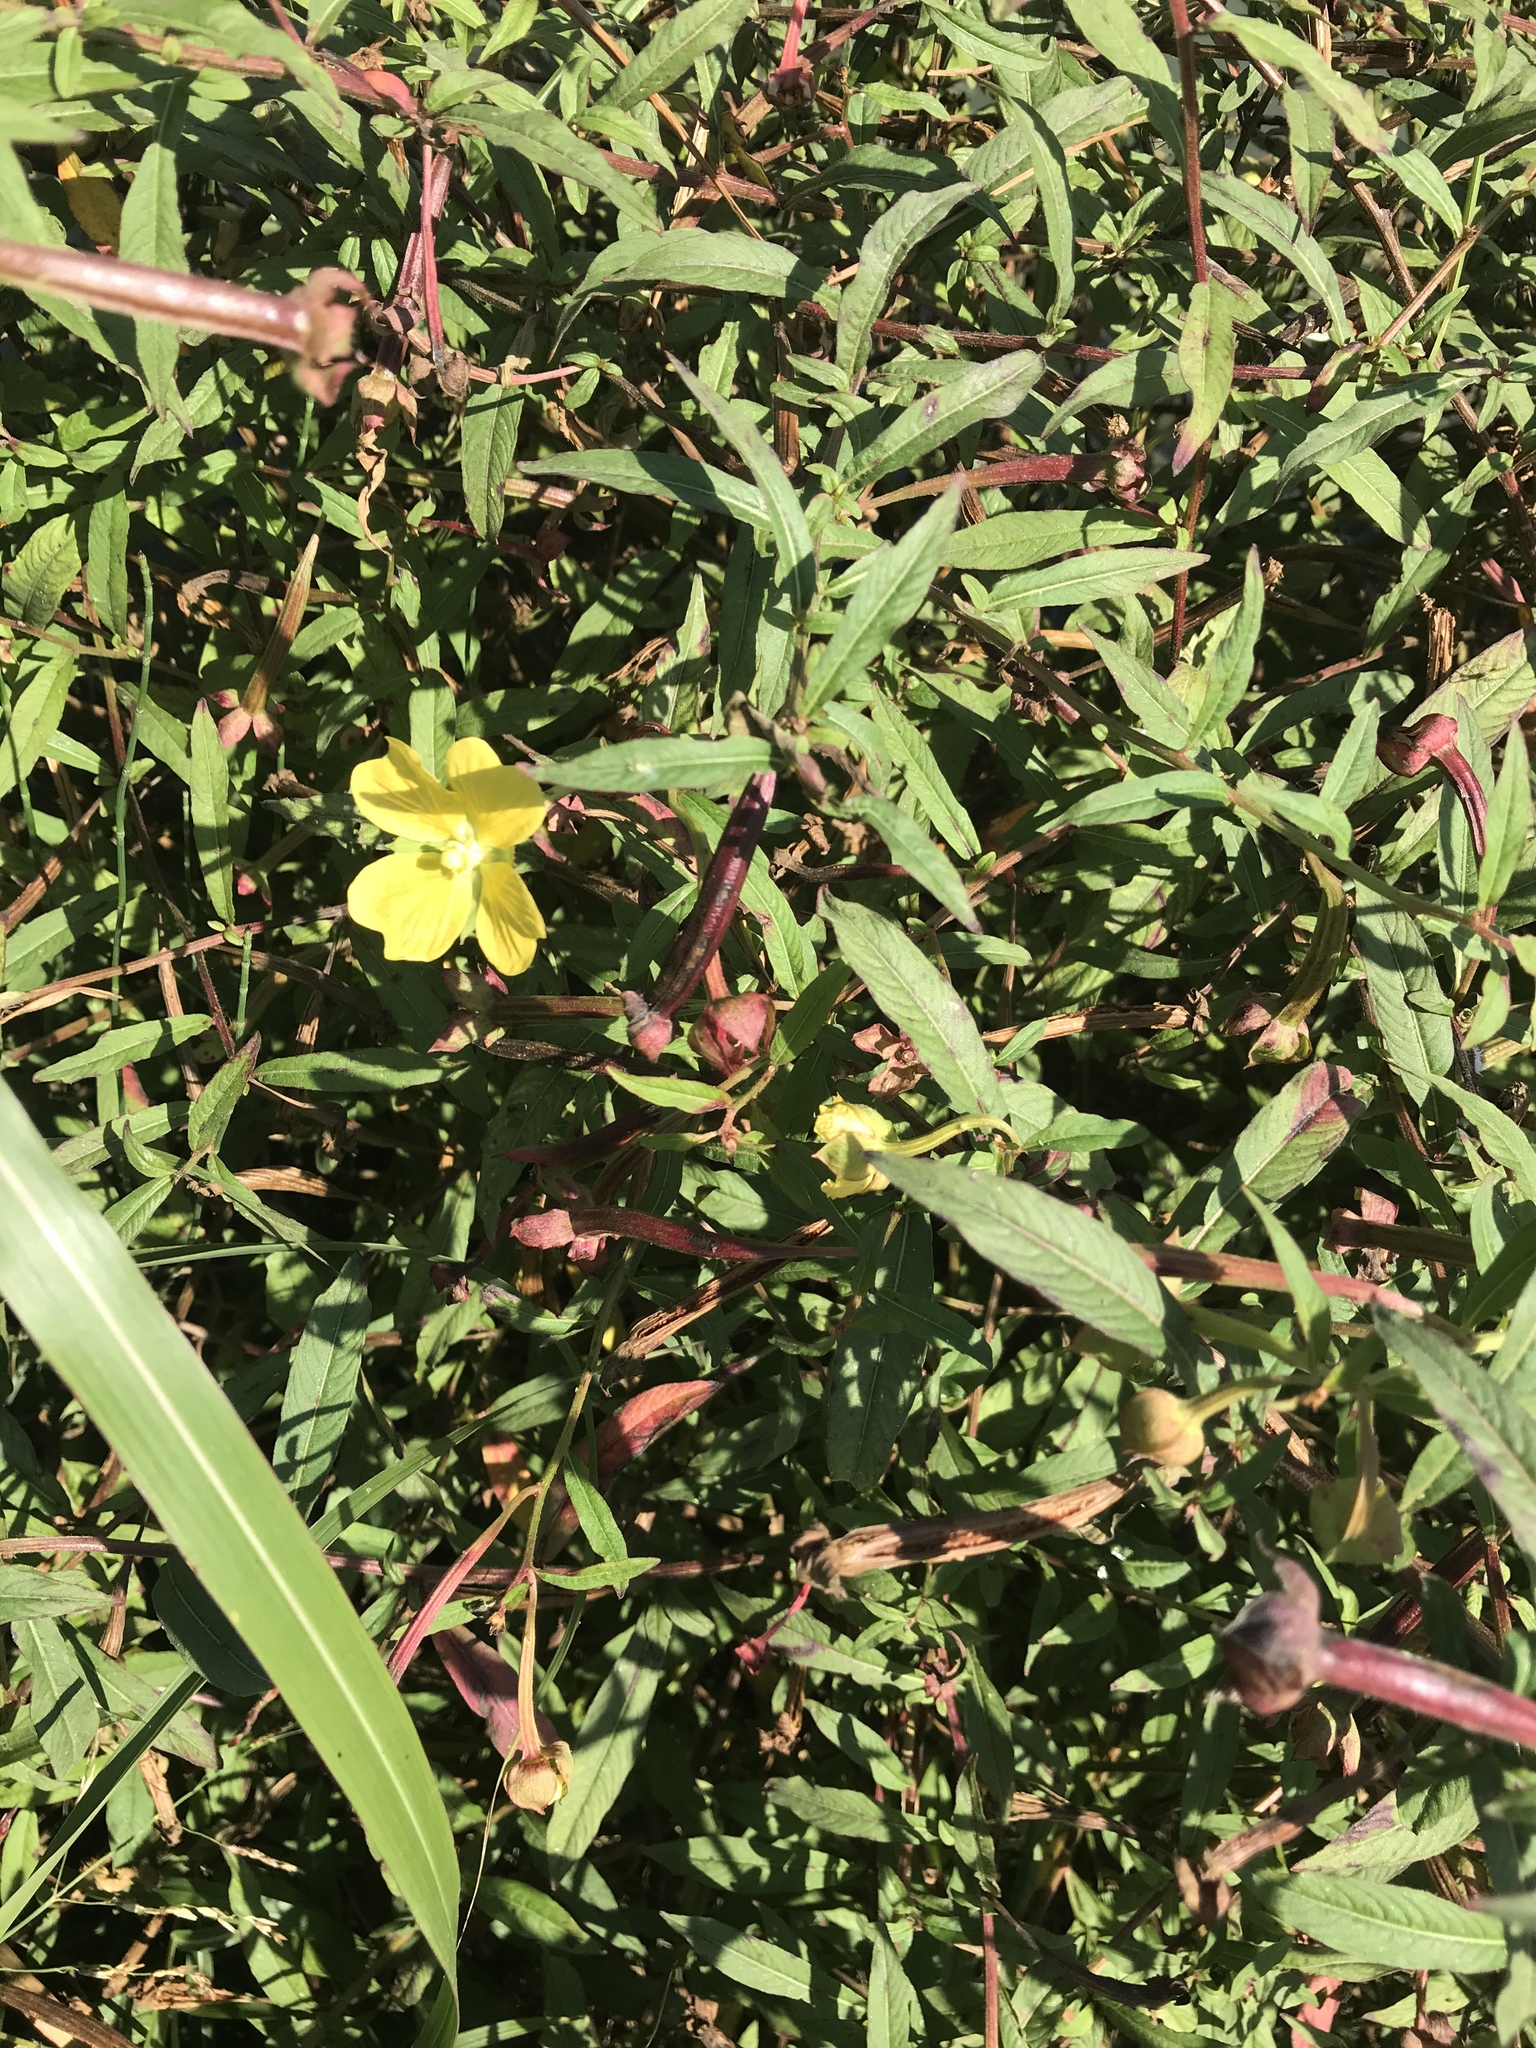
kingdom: Plantae
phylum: Tracheophyta
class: Magnoliopsida
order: Myrtales
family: Onagraceae
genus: Ludwigia
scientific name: Ludwigia octovalvis
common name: Water-primrose
